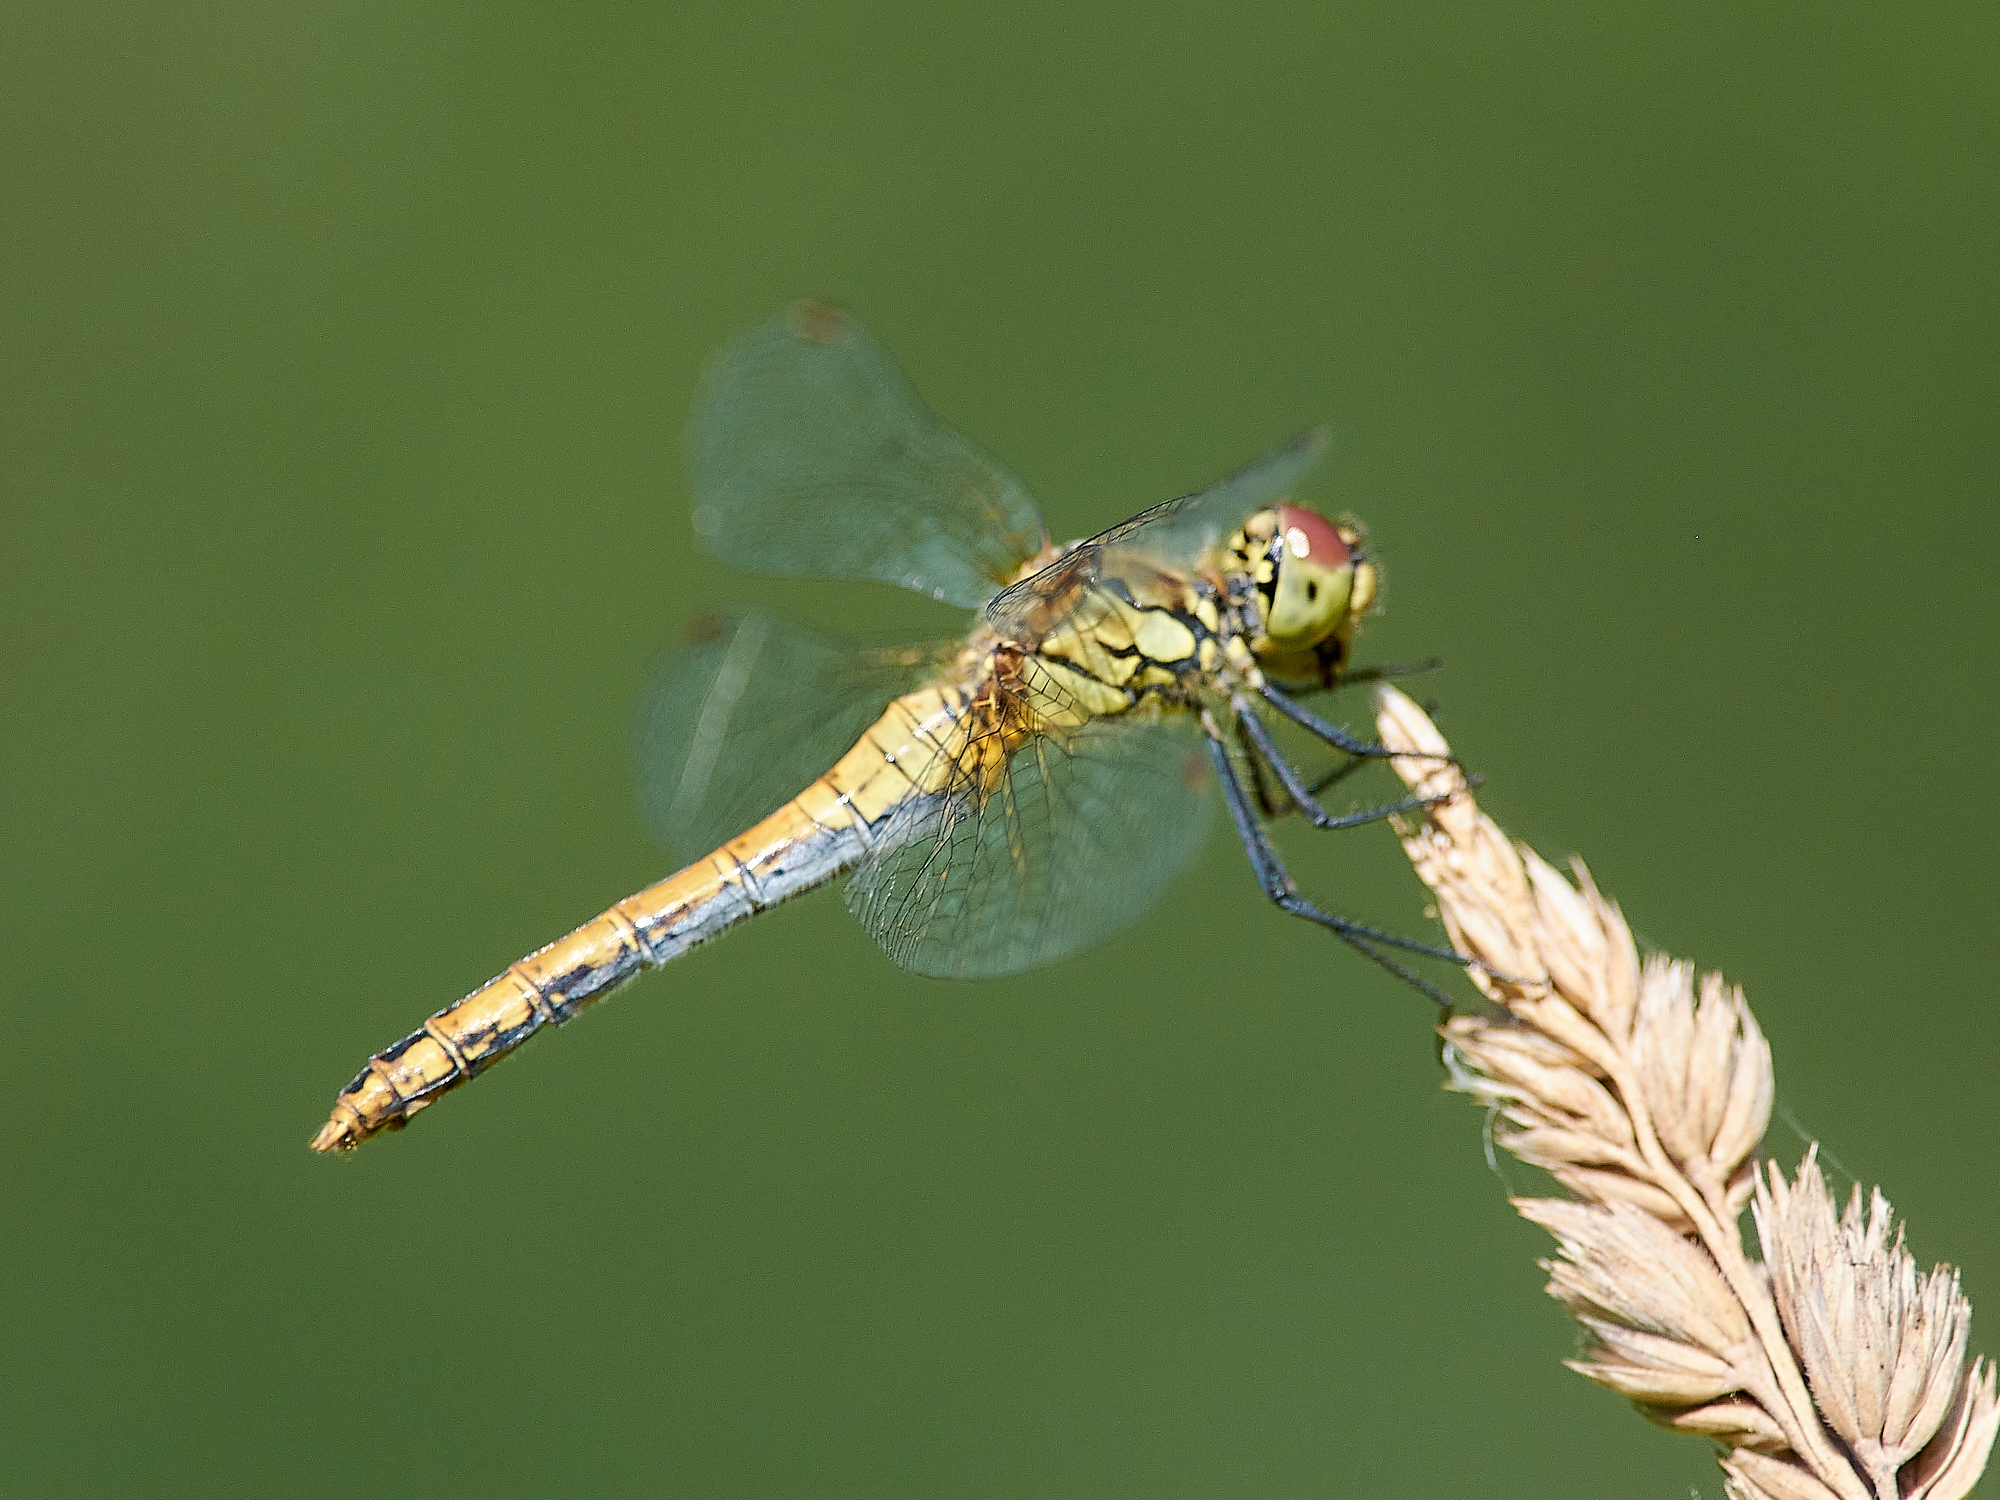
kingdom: Animalia
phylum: Arthropoda
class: Insecta
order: Odonata
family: Libellulidae
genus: Sympetrum
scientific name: Sympetrum sanguineum
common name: Ruddy darter
